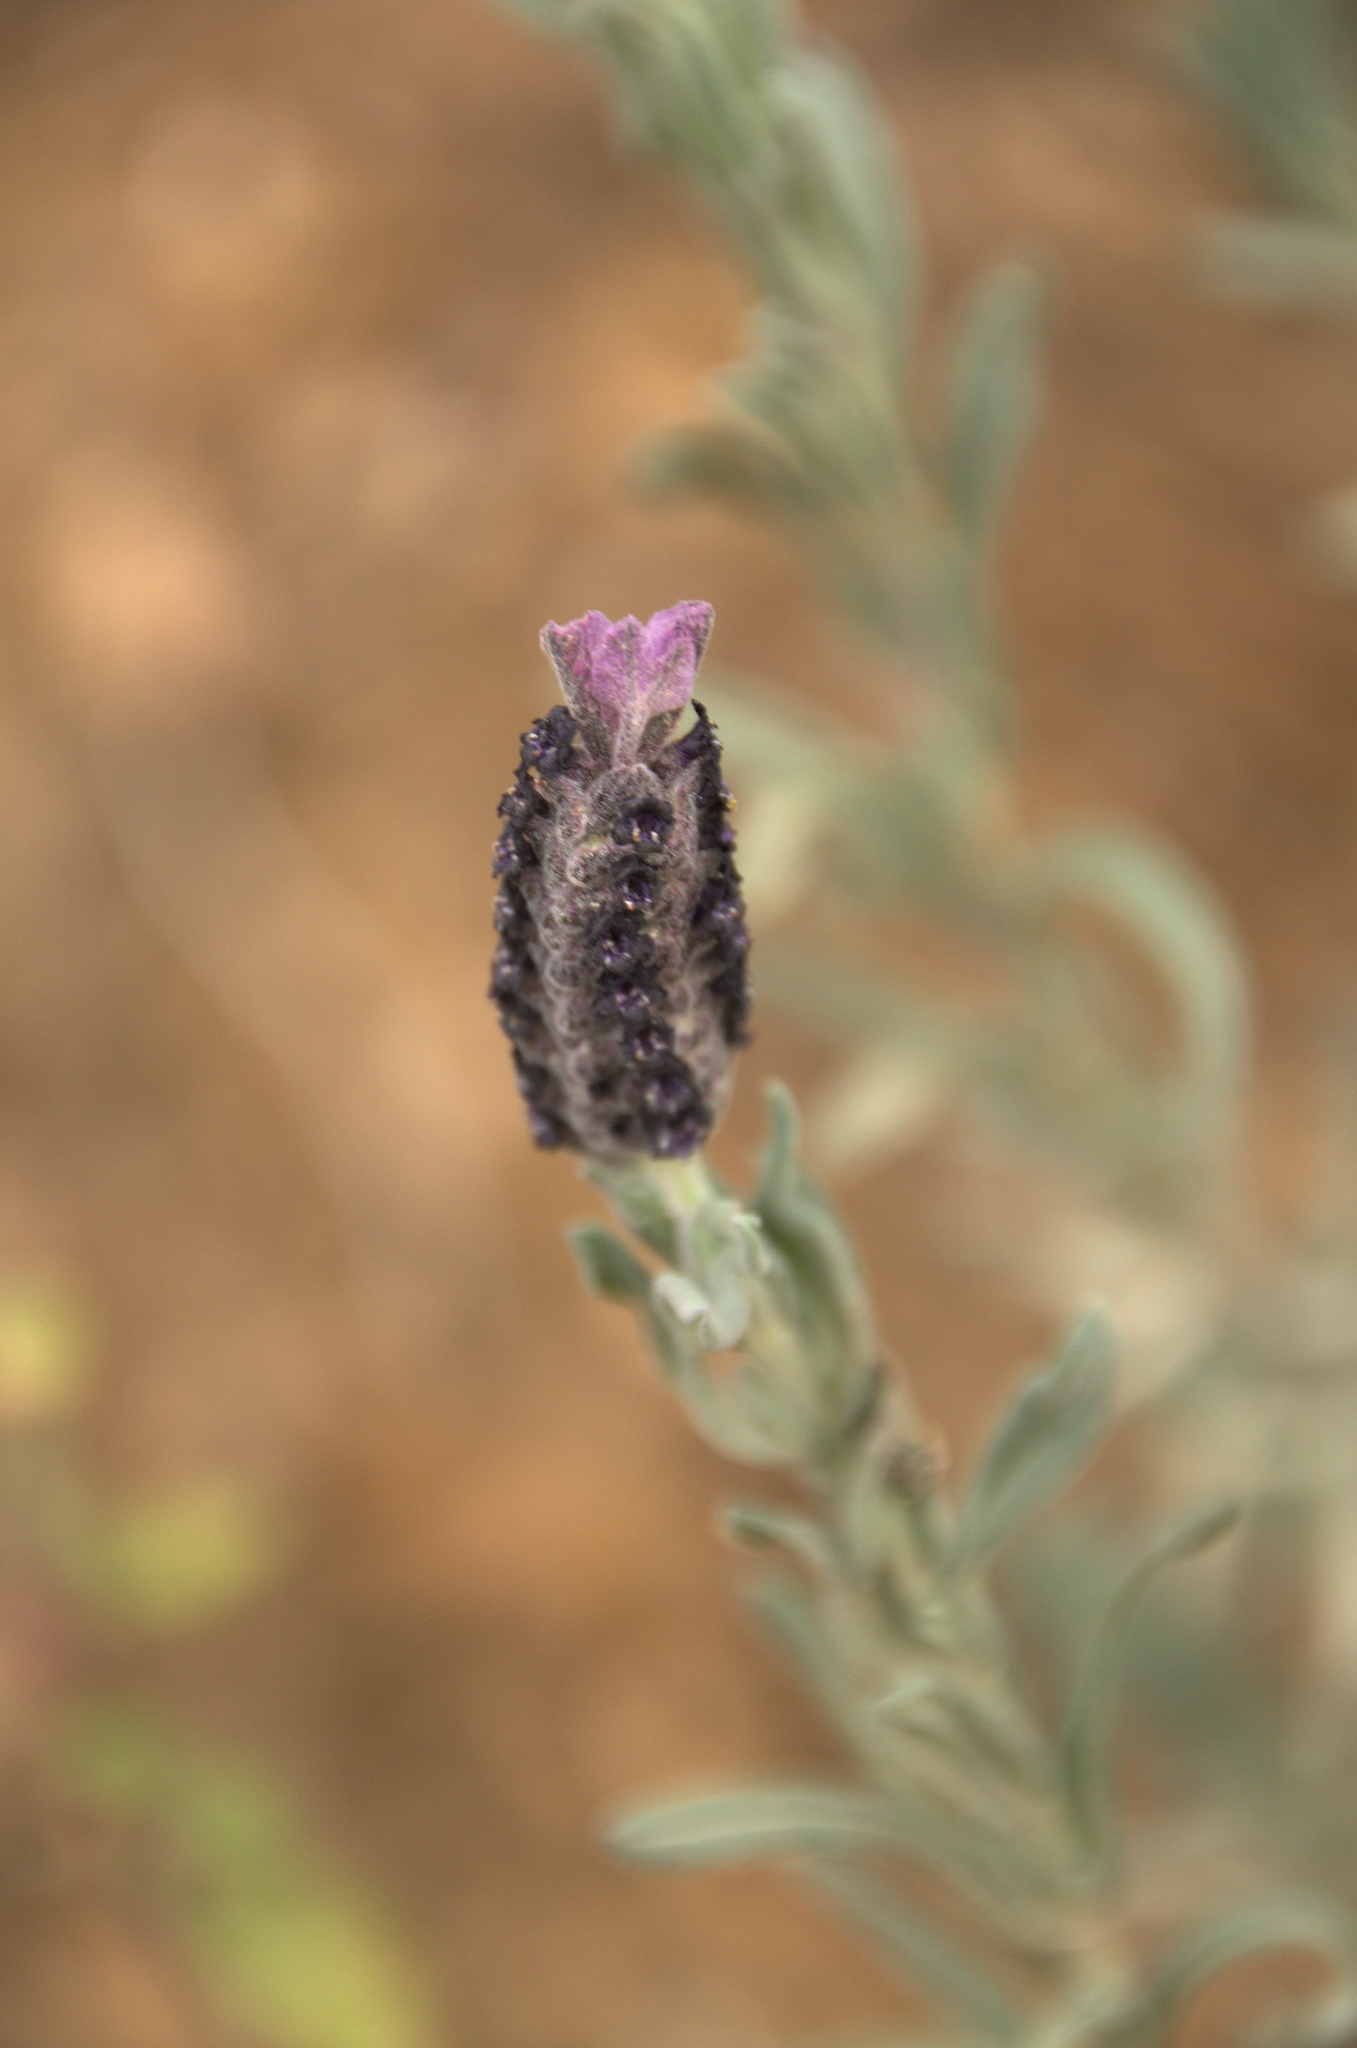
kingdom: Plantae
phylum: Tracheophyta
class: Magnoliopsida
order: Lamiales
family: Lamiaceae
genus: Lavandula
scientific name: Lavandula stoechas
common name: French lavender
